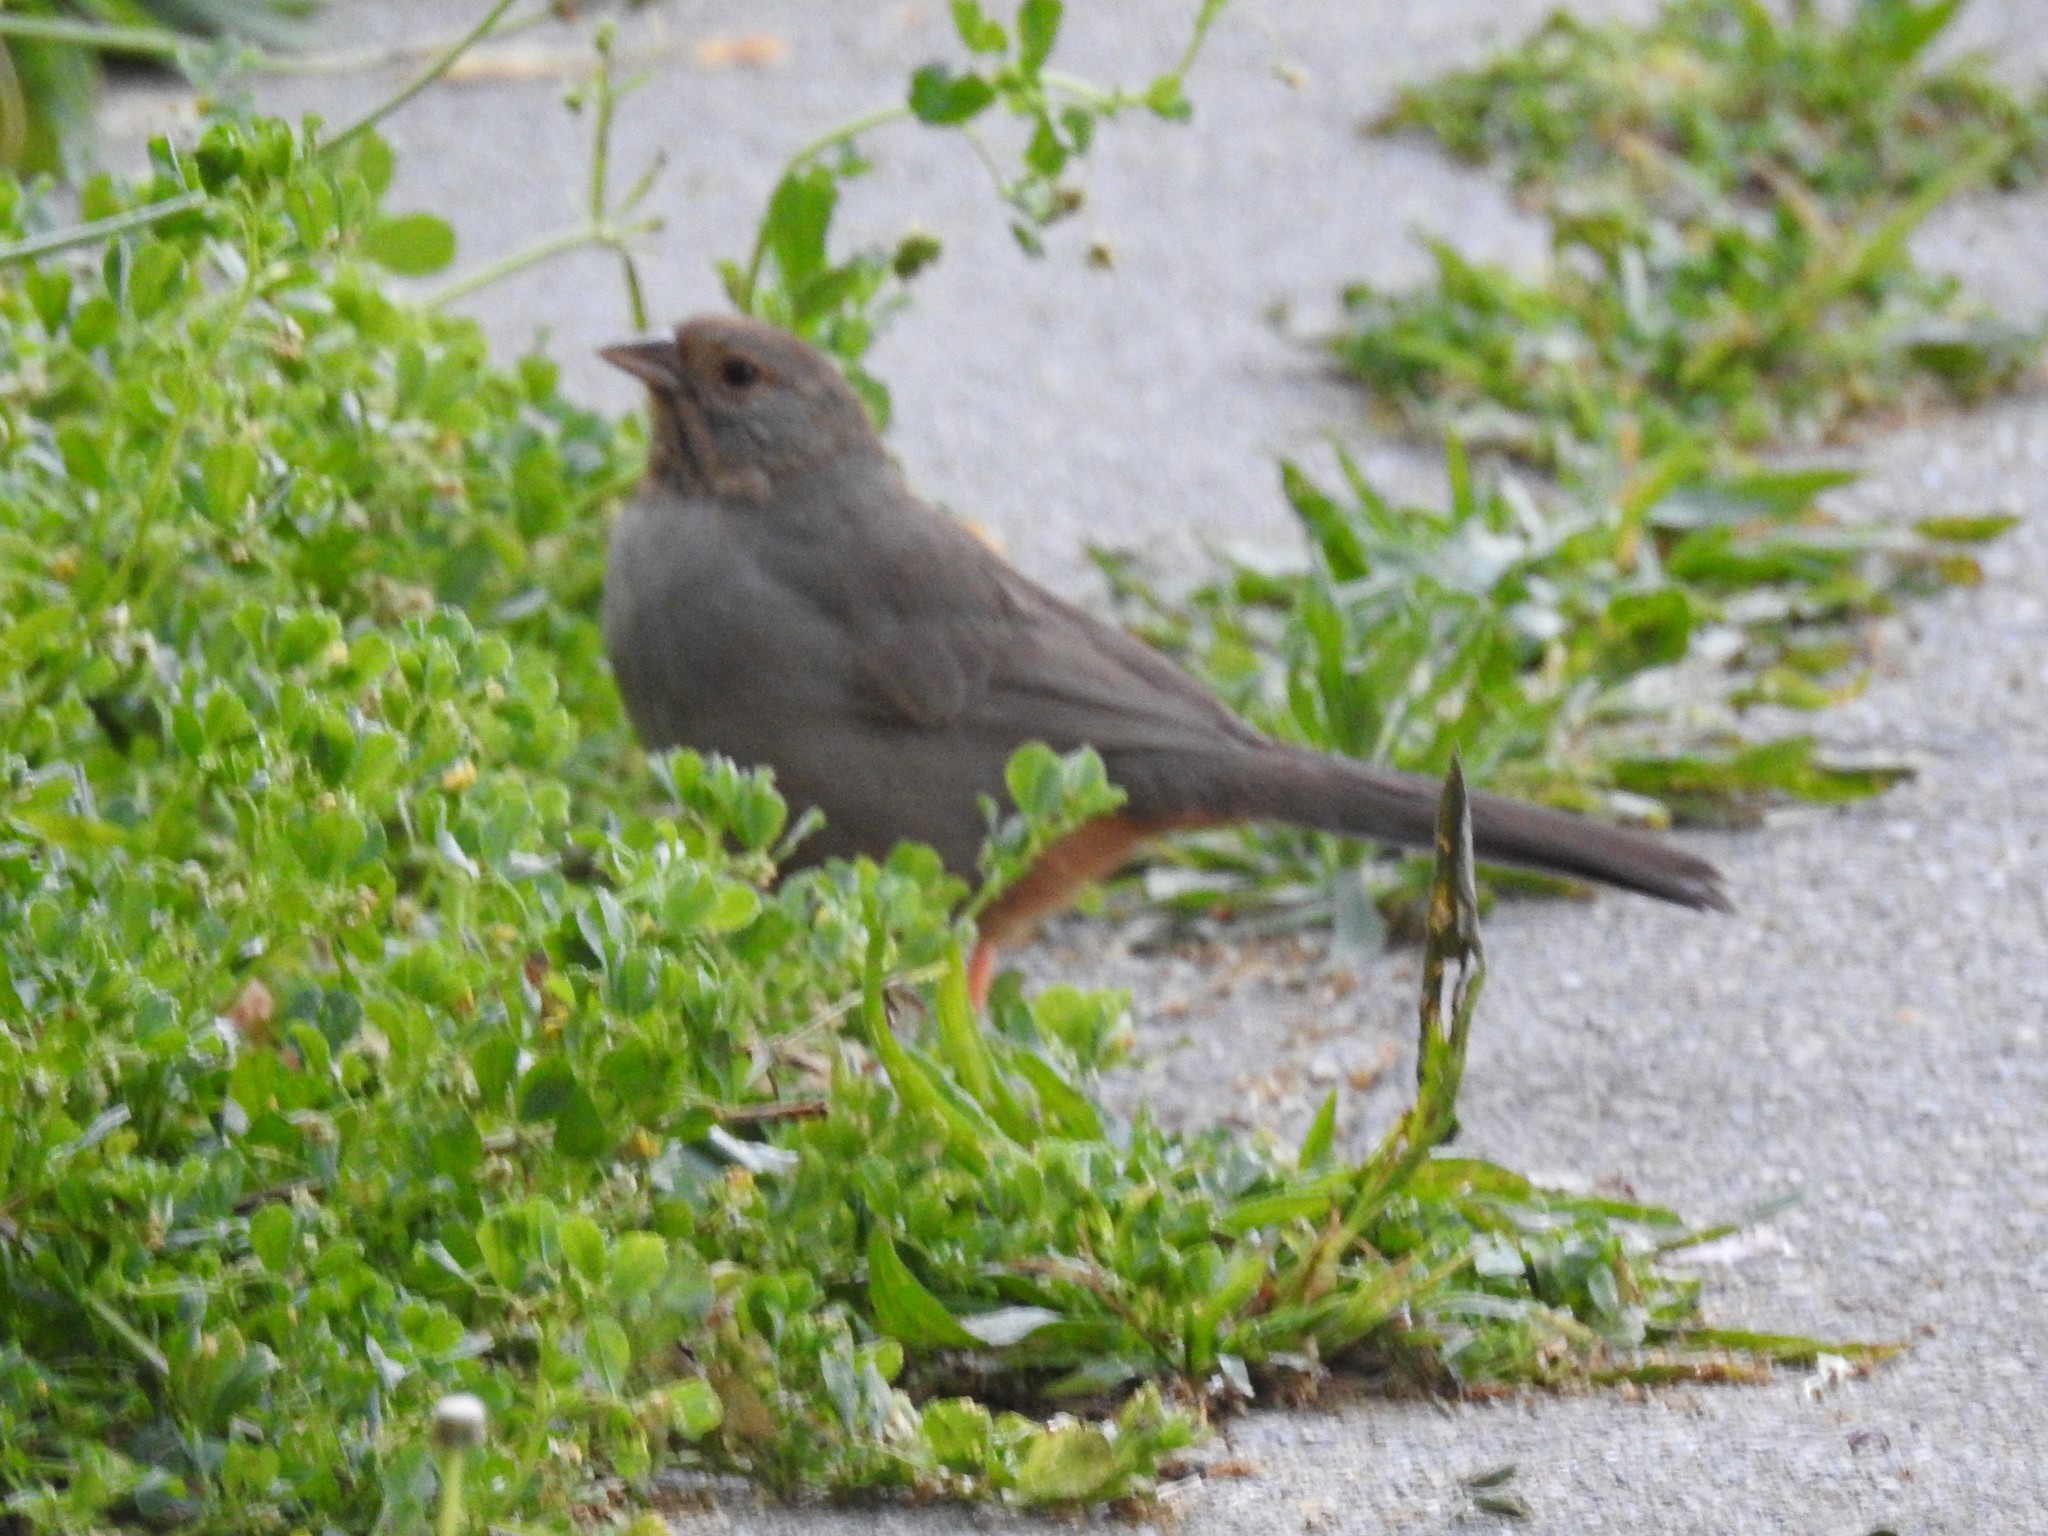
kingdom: Animalia
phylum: Chordata
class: Aves
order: Passeriformes
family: Passerellidae
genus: Melozone
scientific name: Melozone crissalis
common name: California towhee
